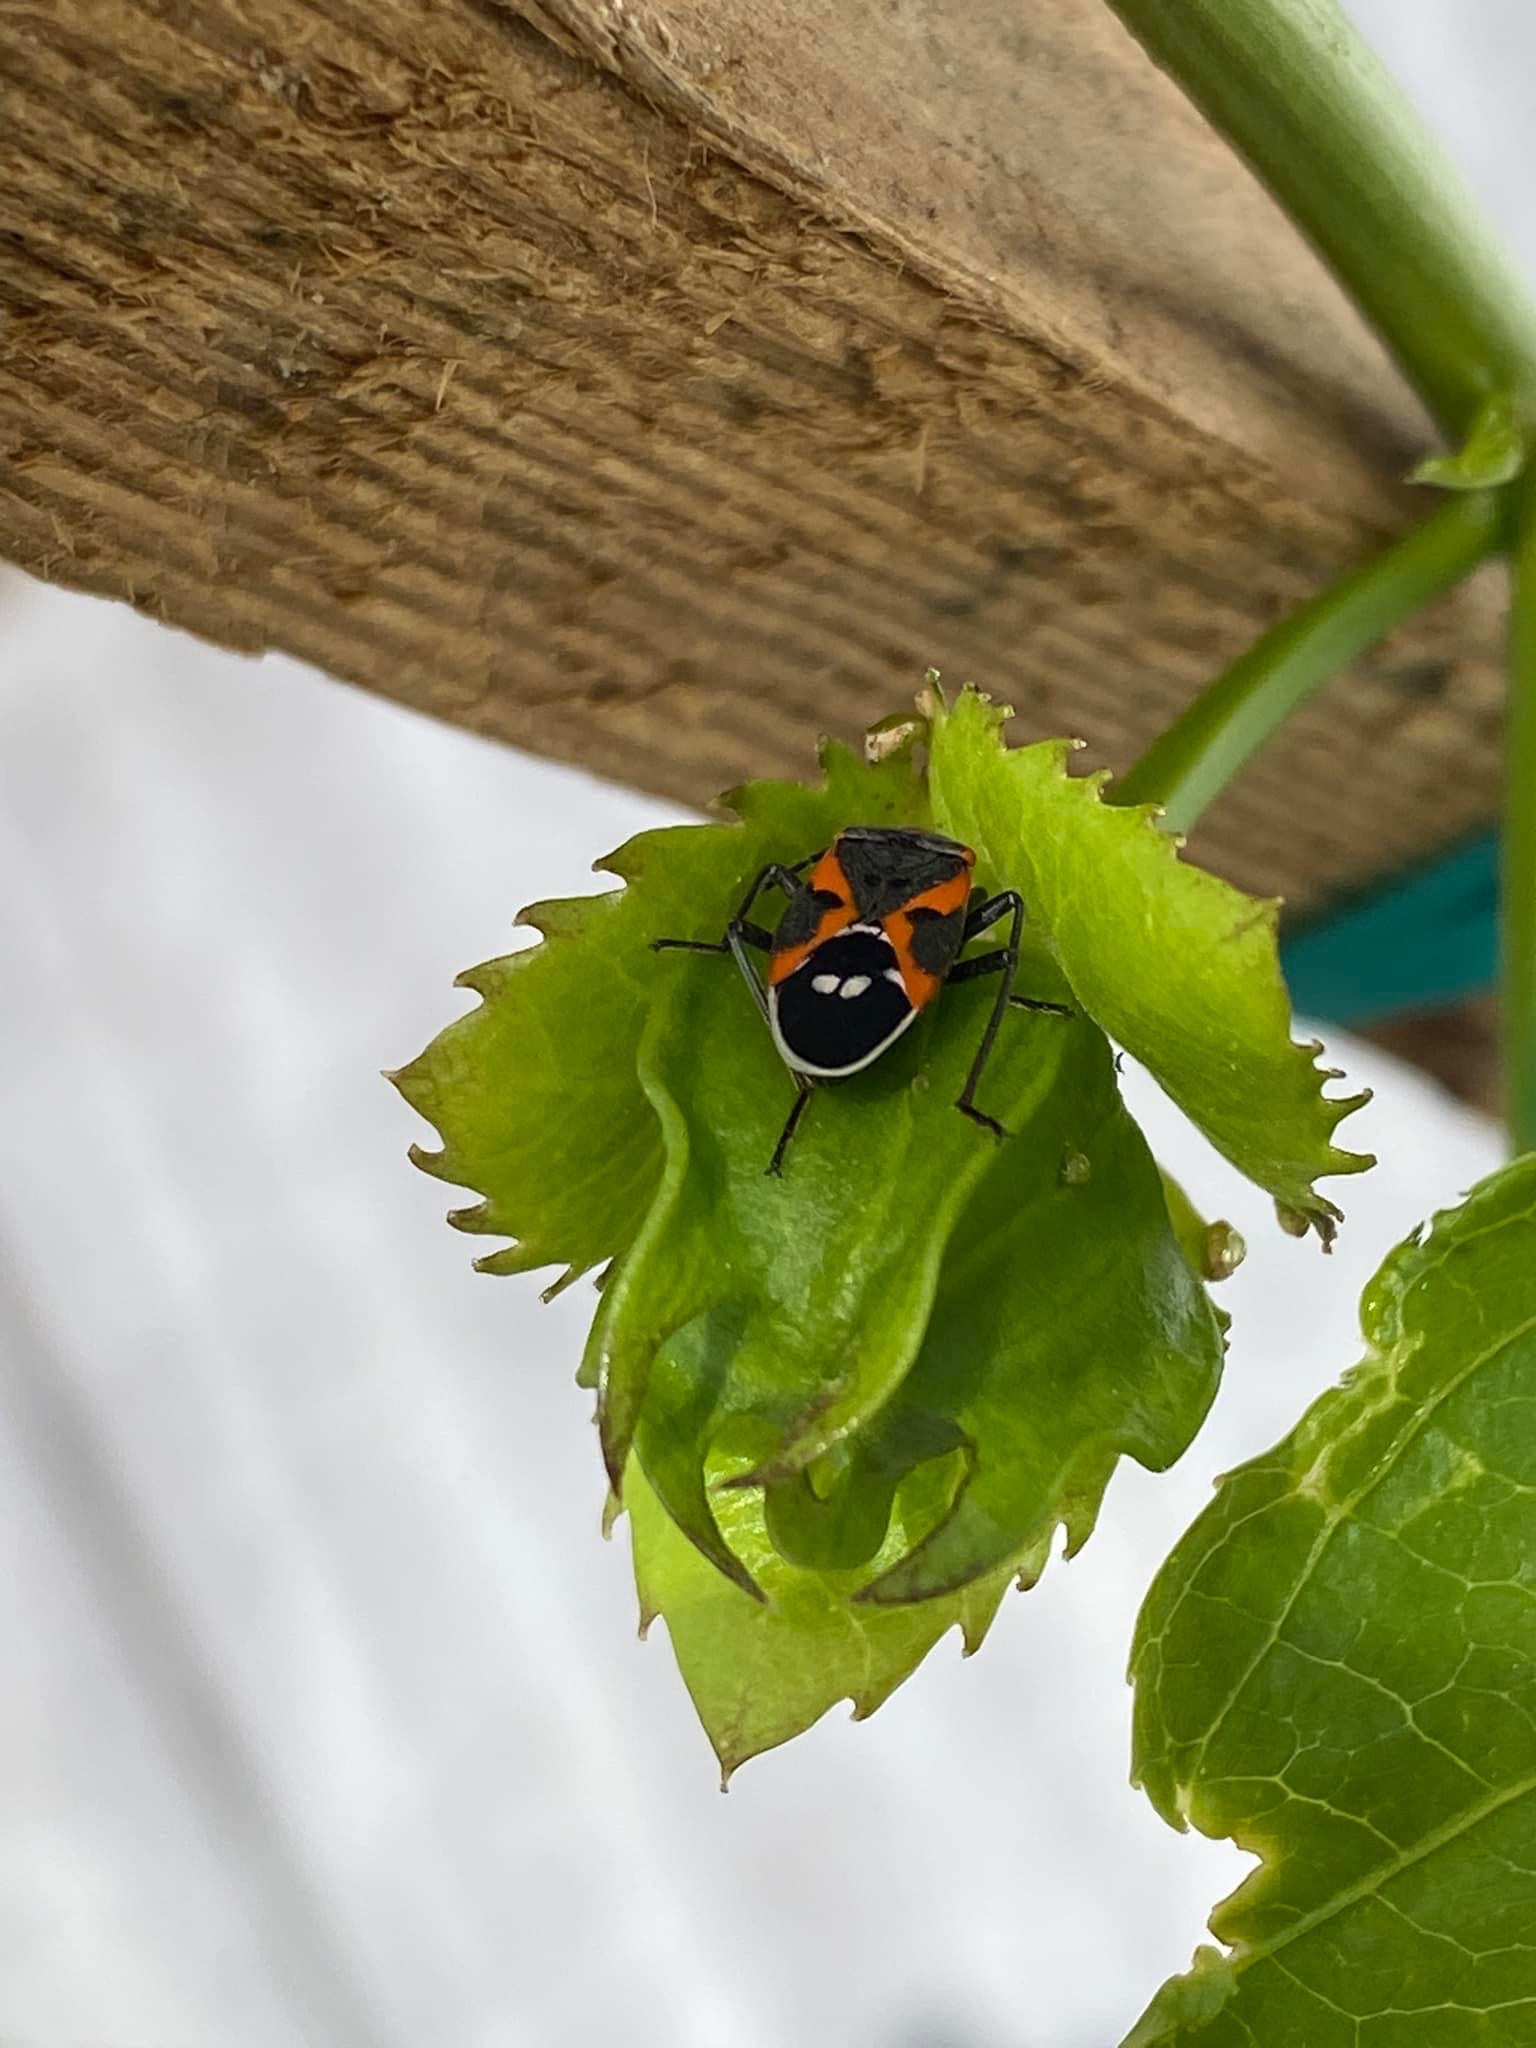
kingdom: Animalia
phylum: Arthropoda
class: Insecta
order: Hemiptera
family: Lygaeidae
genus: Lygaeus
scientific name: Lygaeus kalmii
